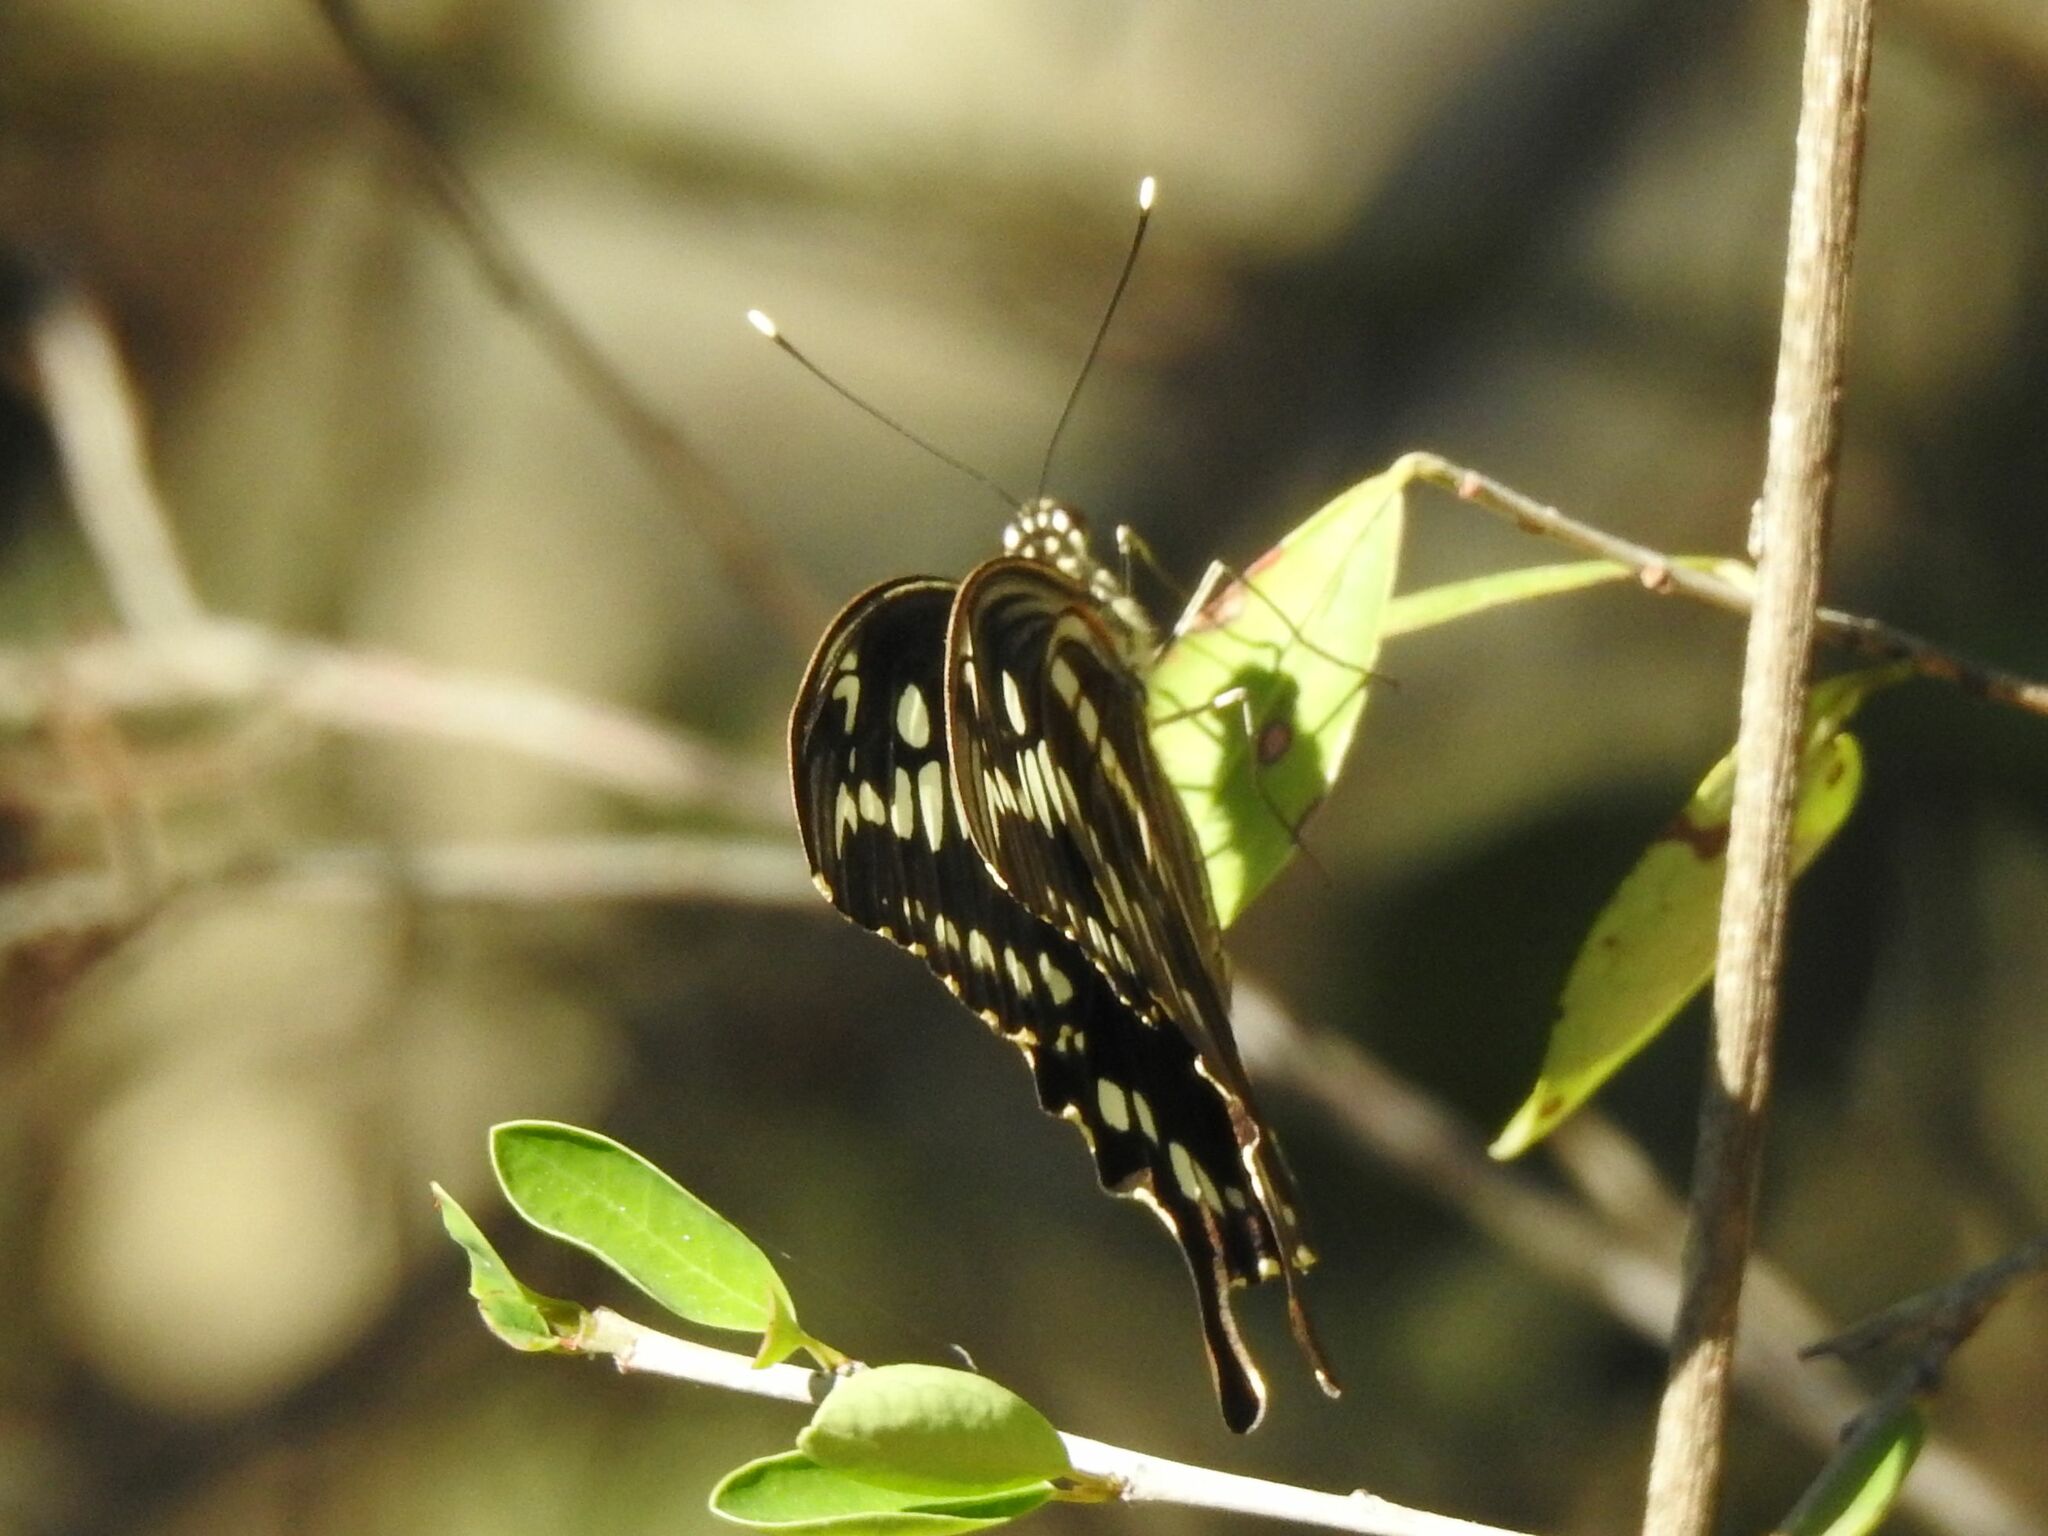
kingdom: Animalia
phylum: Arthropoda
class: Insecta
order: Lepidoptera
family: Papilionidae
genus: Papilio
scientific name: Papilio constantinus
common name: Constantine's swallowtail
